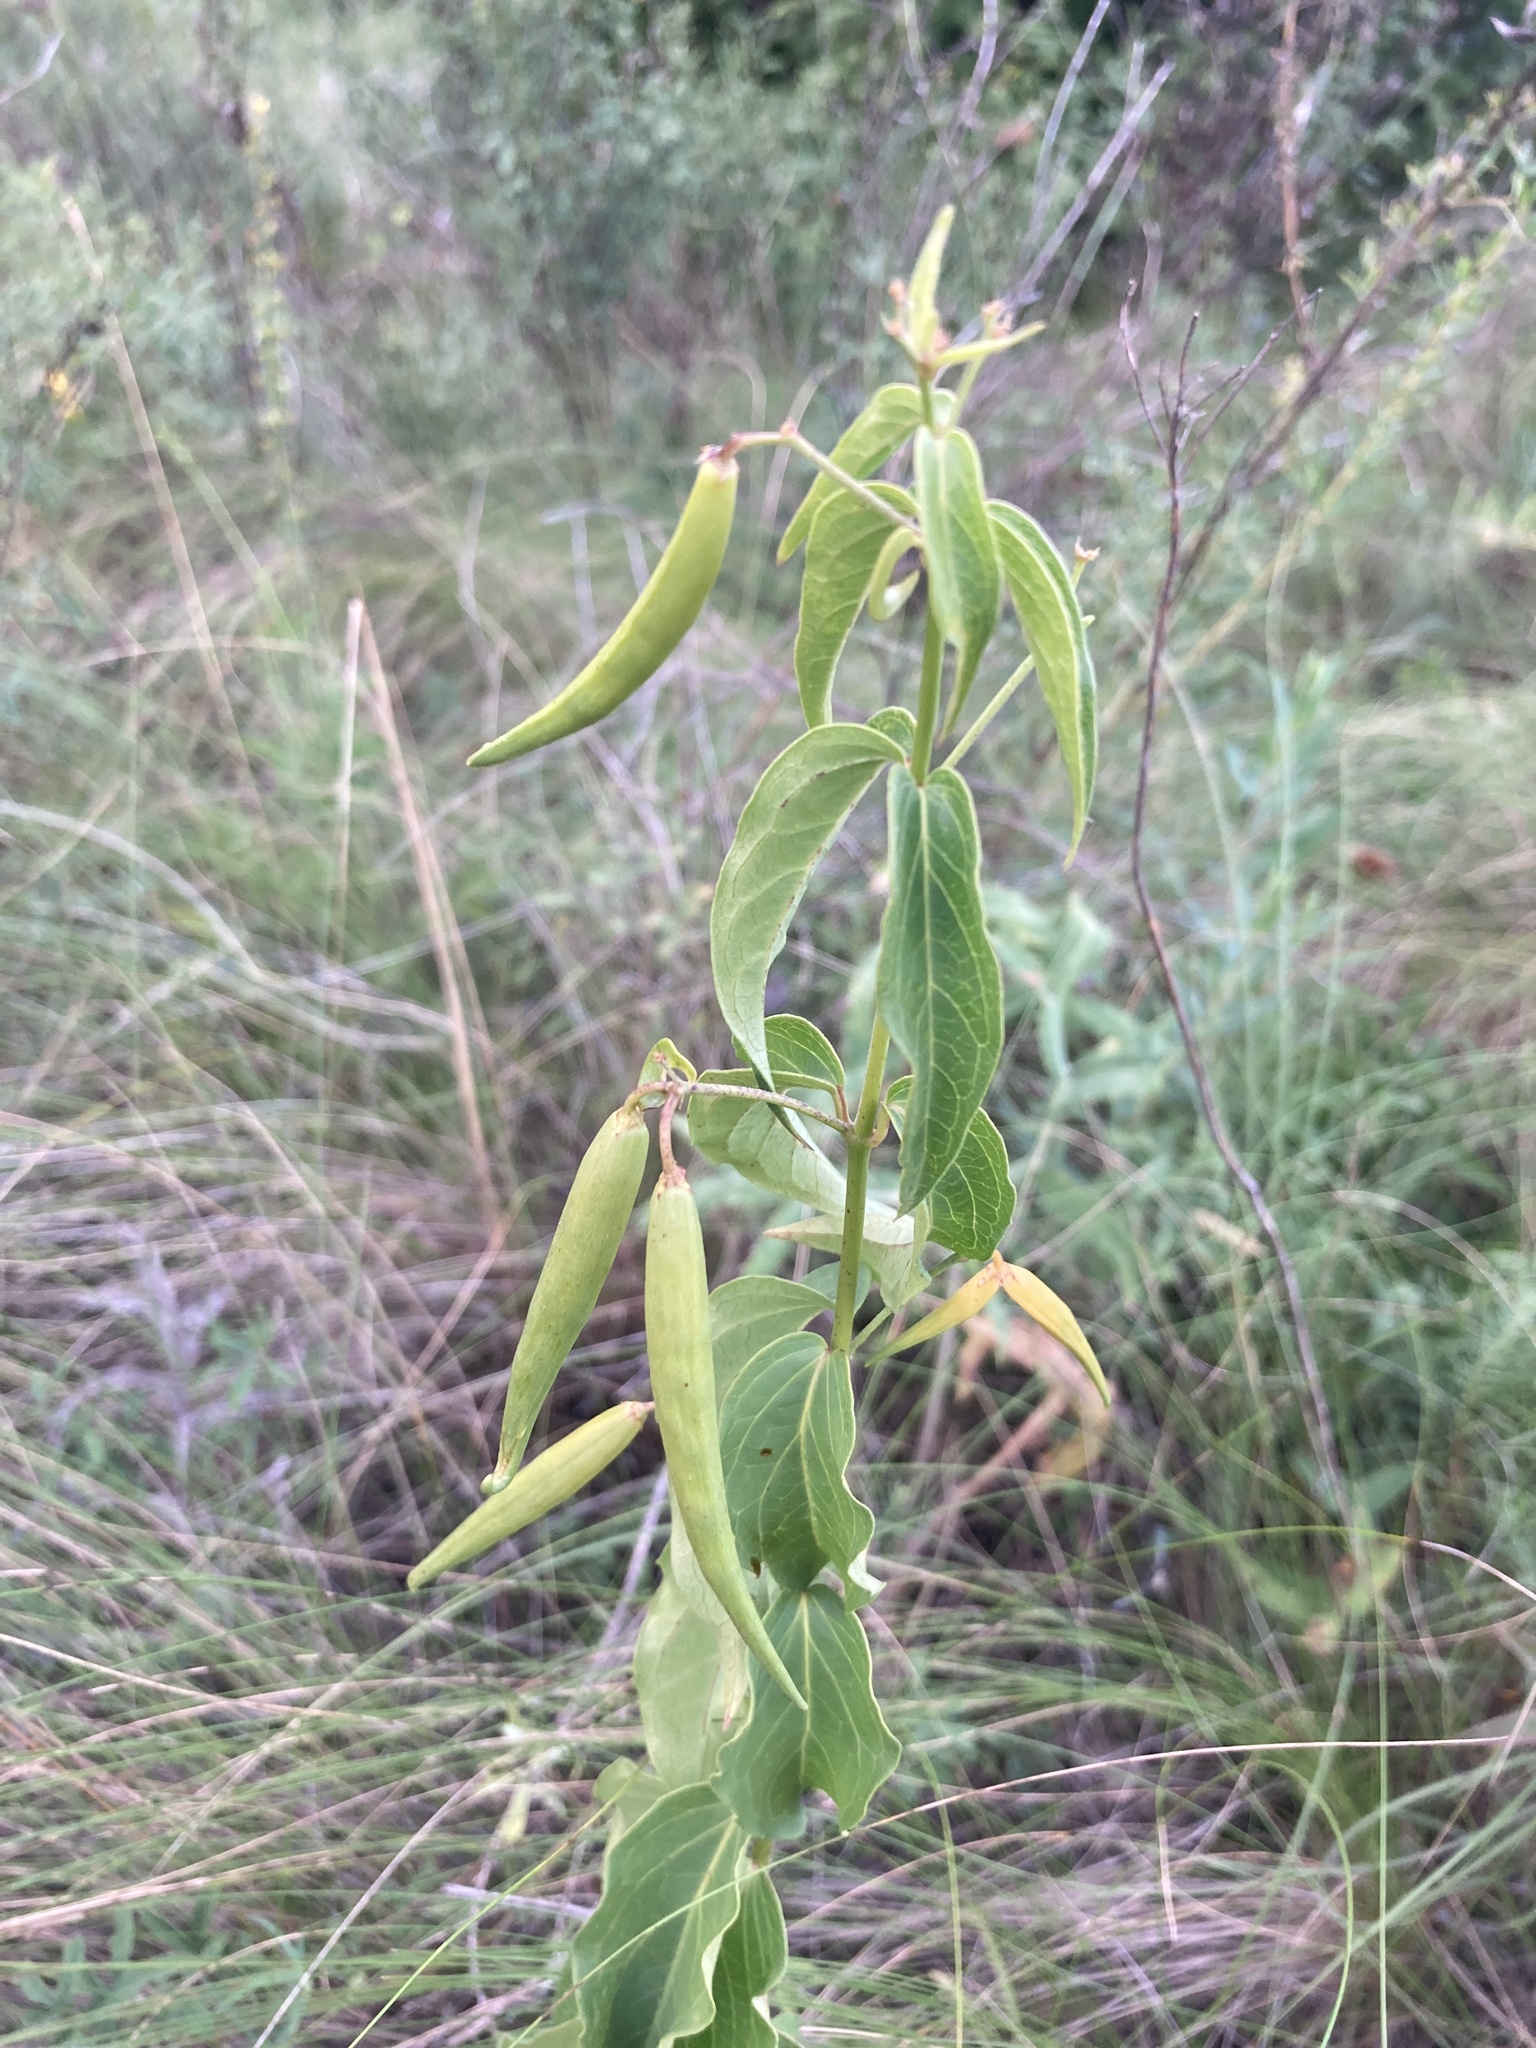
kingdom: Plantae
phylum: Tracheophyta
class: Magnoliopsida
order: Gentianales
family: Apocynaceae
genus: Vincetoxicum
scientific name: Vincetoxicum hirundinaria
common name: White swallowwort
